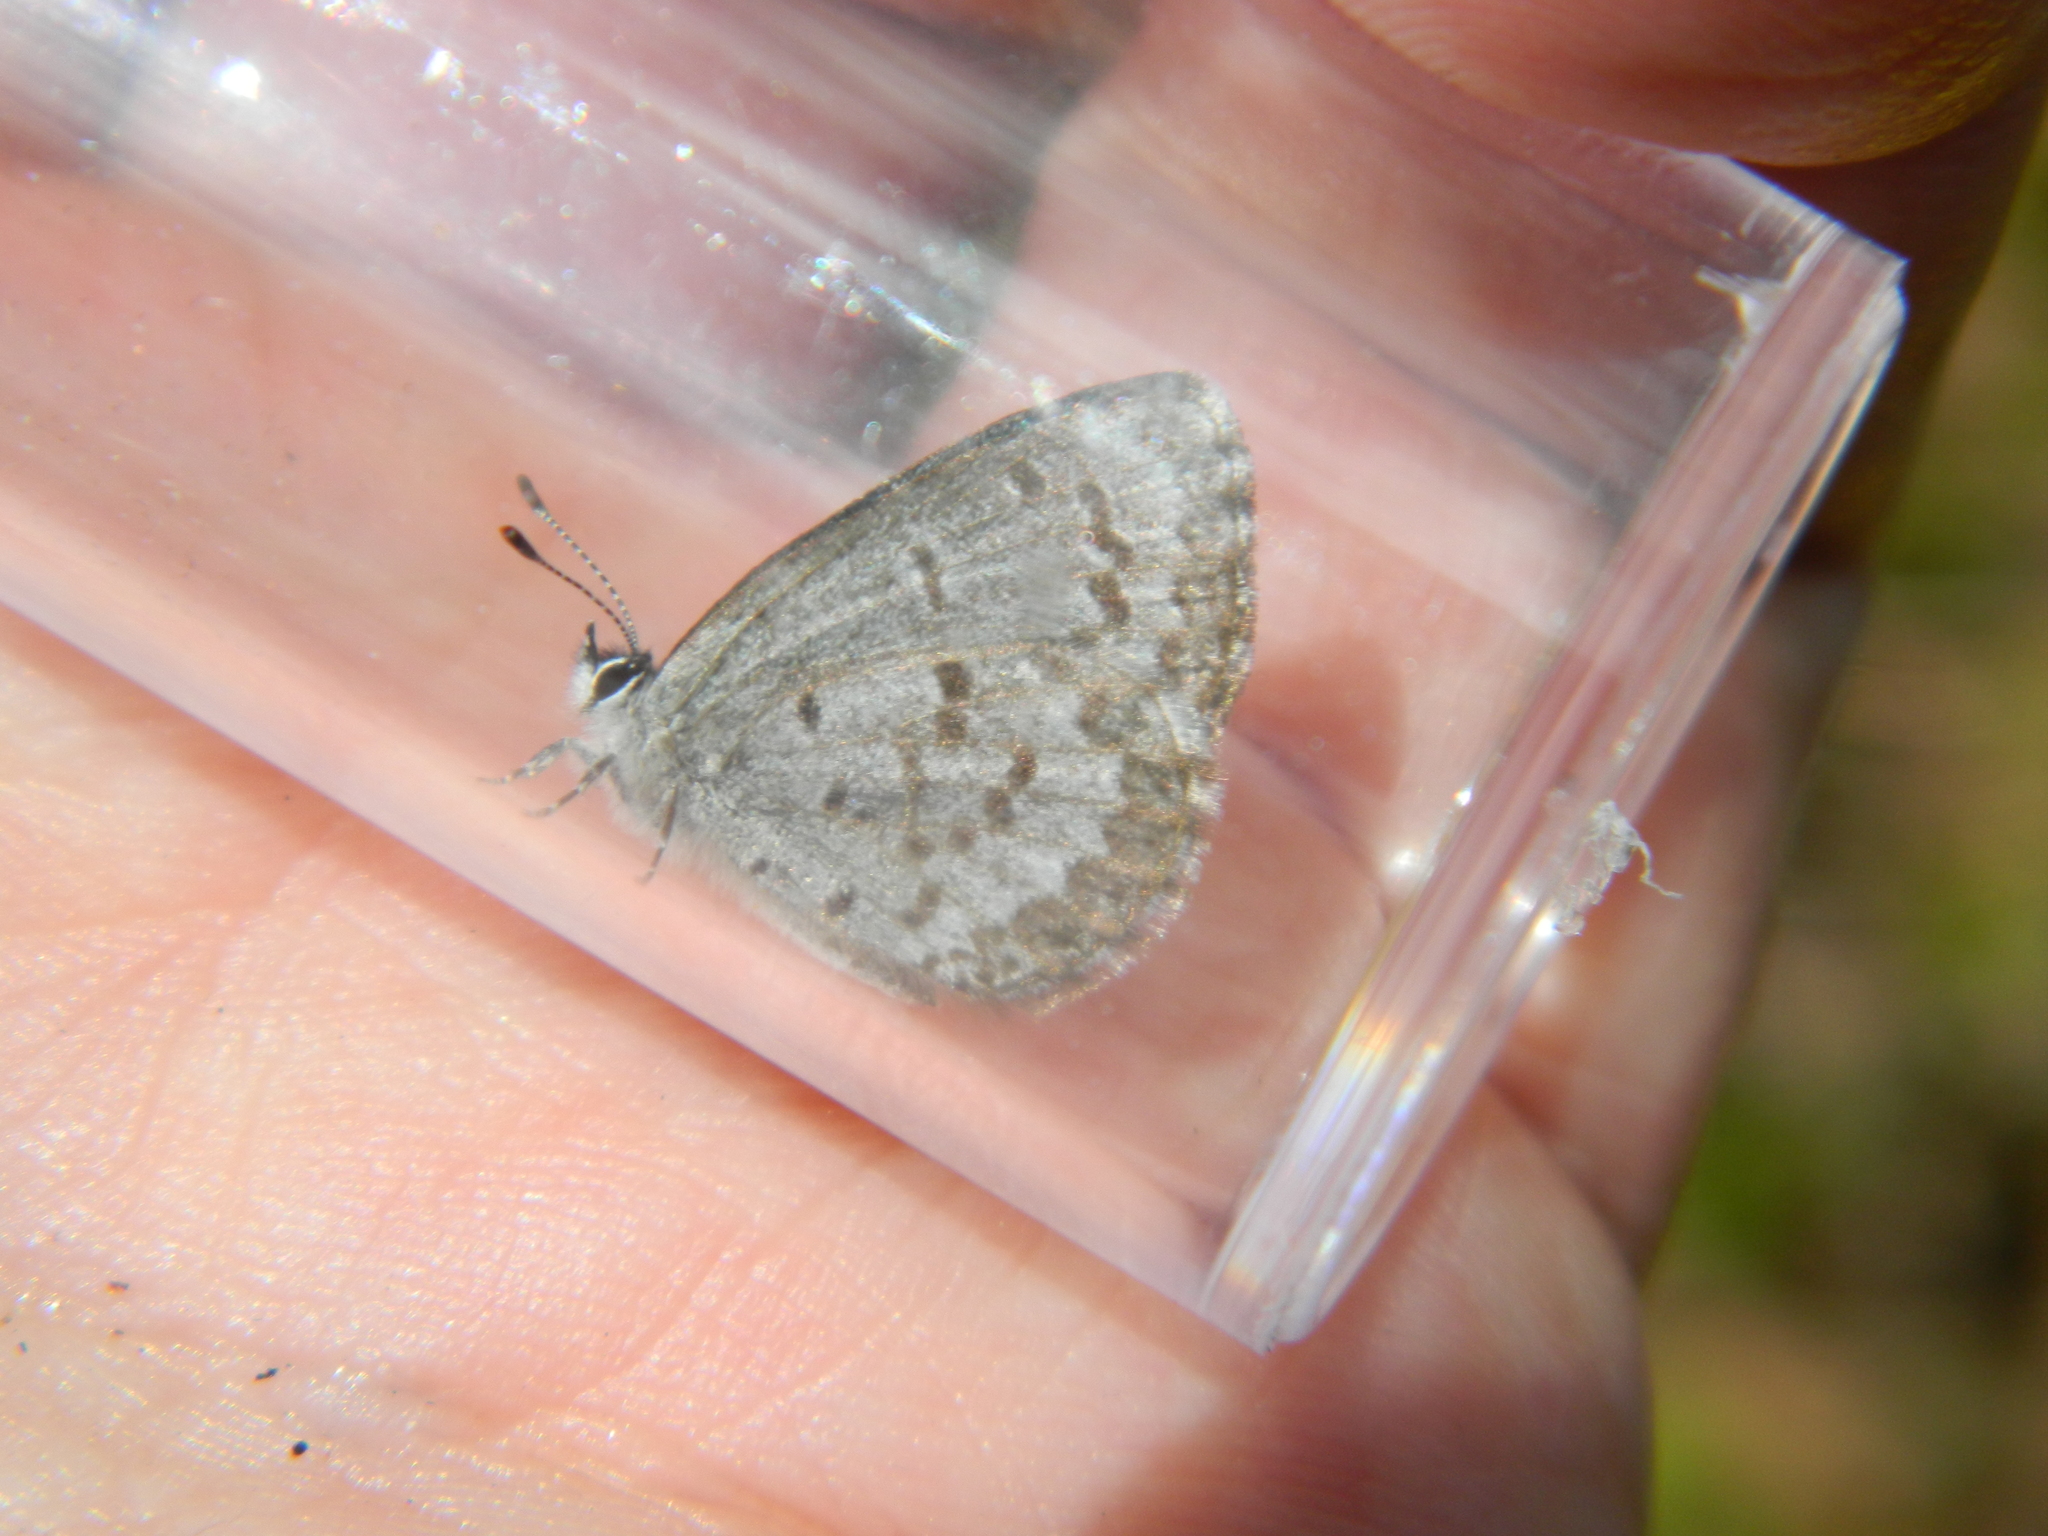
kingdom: Animalia
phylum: Arthropoda
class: Insecta
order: Lepidoptera
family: Lycaenidae
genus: Celastrina
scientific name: Celastrina lucia
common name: Lucia azure
